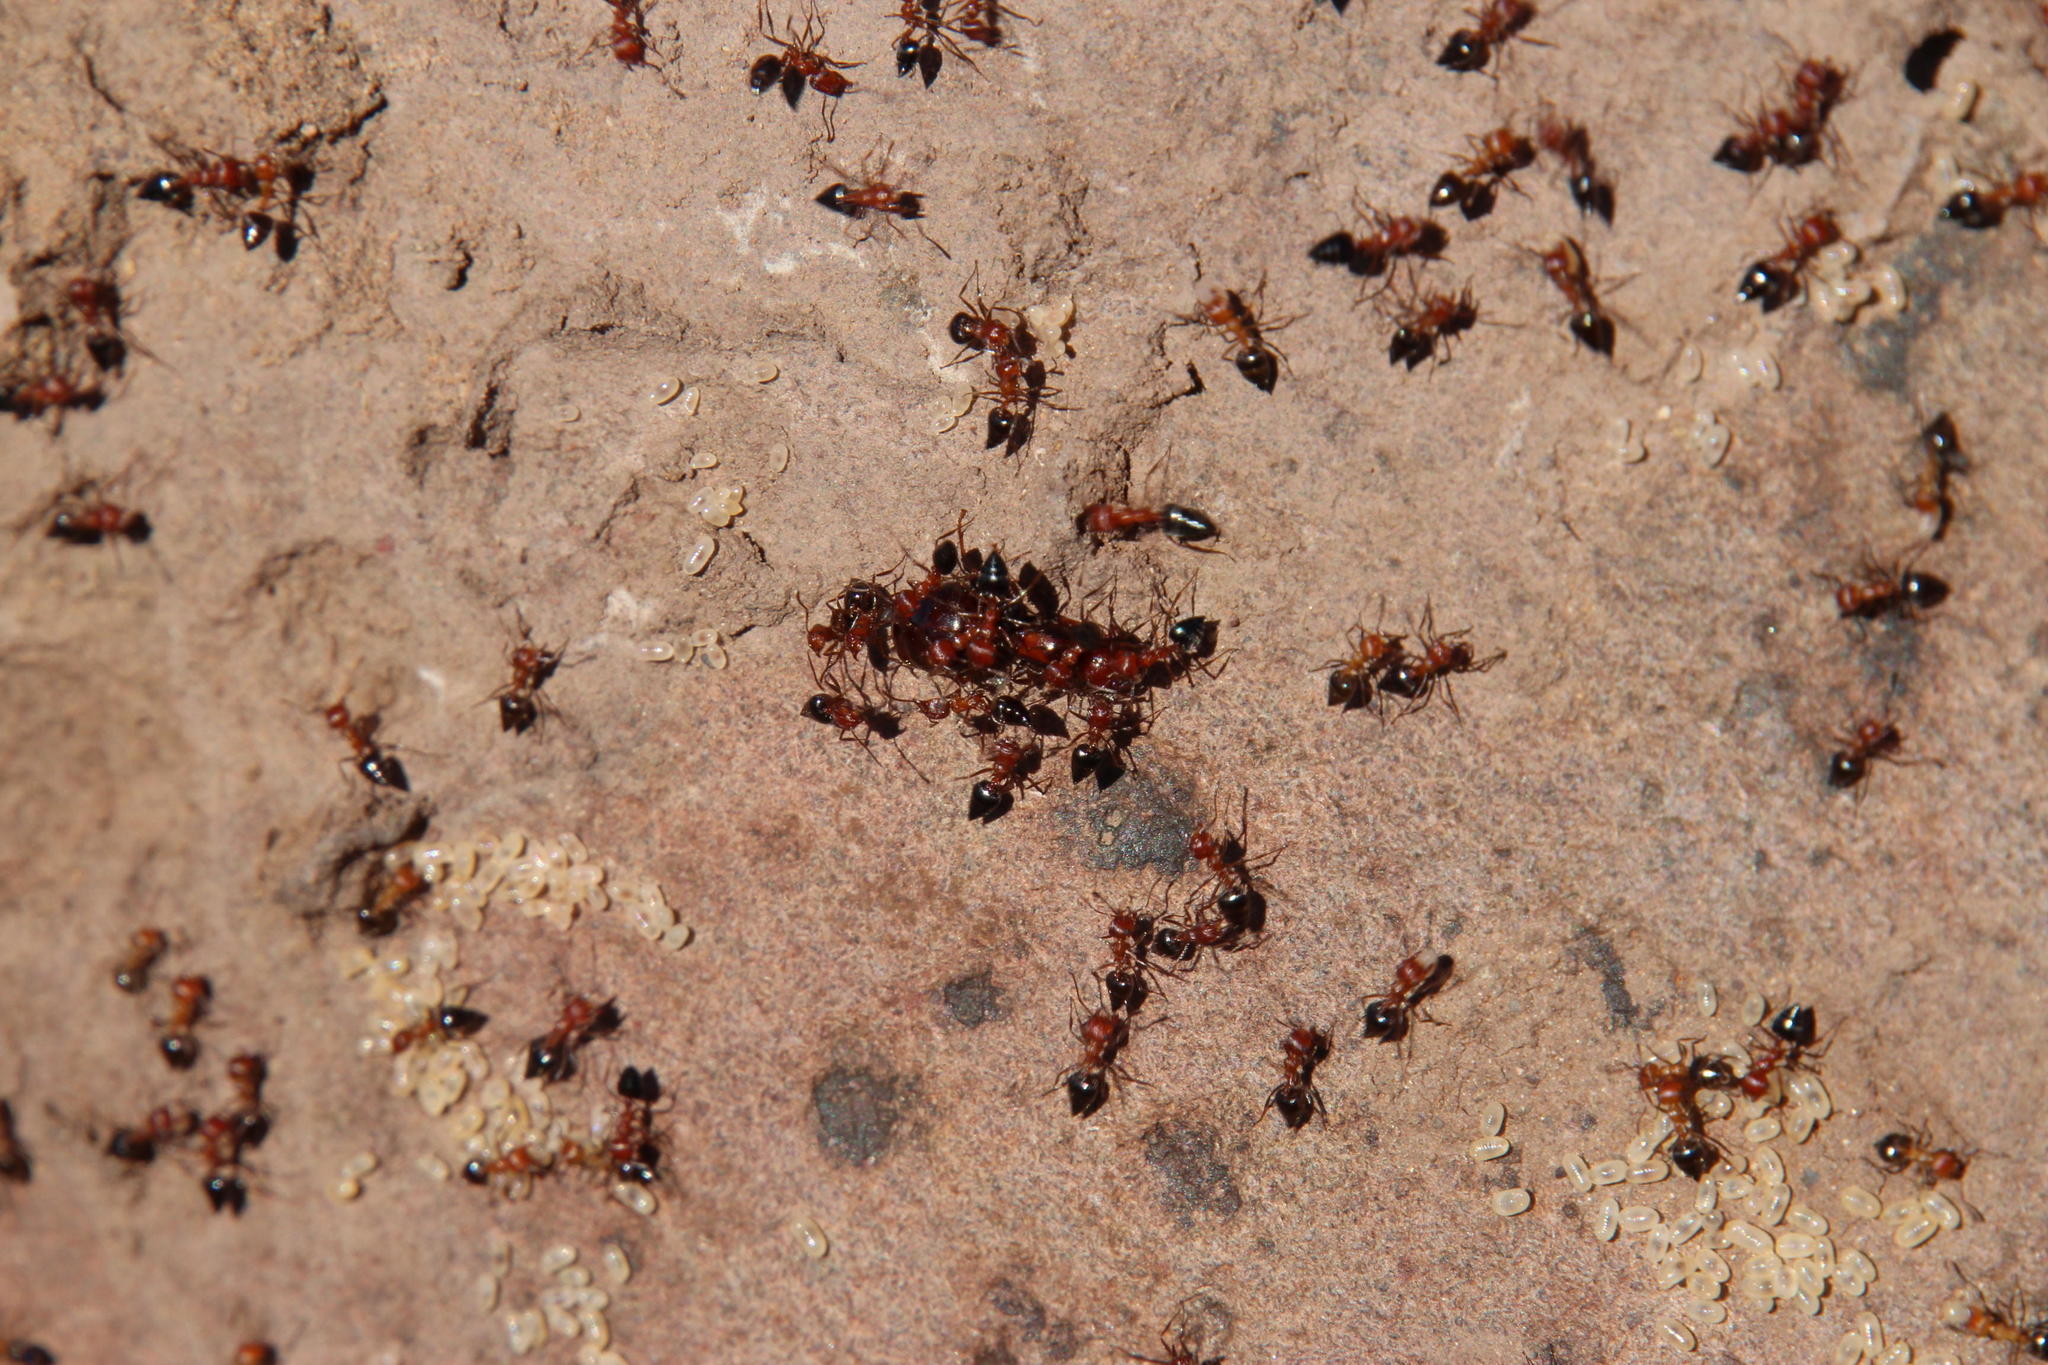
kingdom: Animalia
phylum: Arthropoda
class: Insecta
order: Hymenoptera
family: Formicidae
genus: Crematogaster
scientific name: Crematogaster melanogaster
